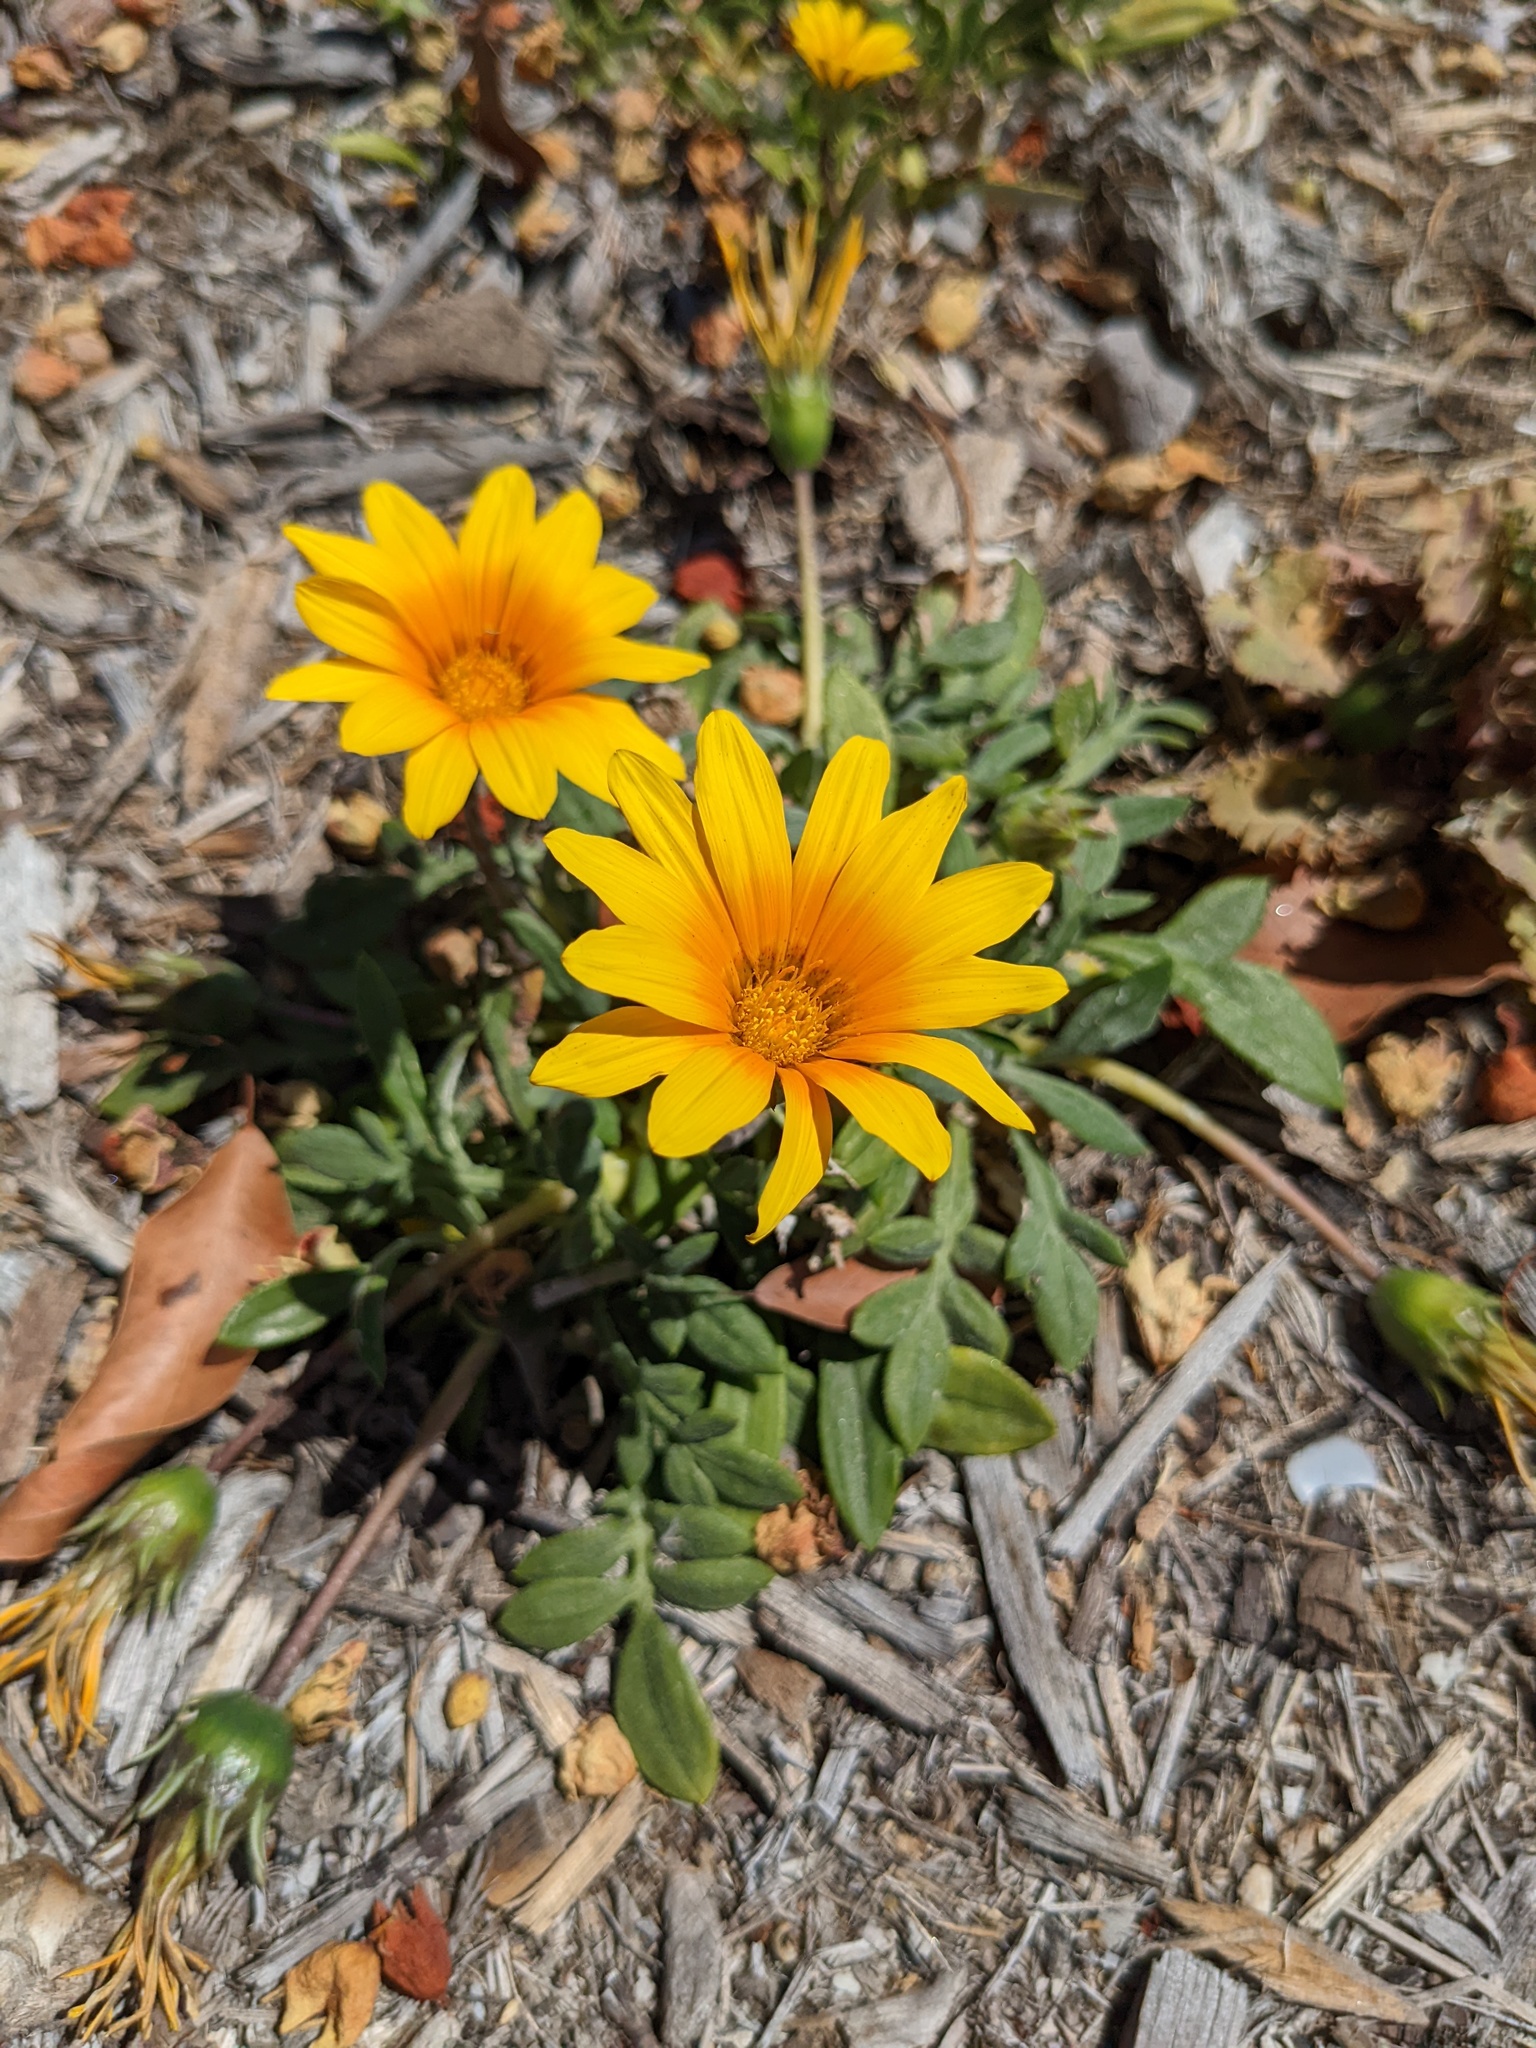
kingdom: Plantae
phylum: Tracheophyta
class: Magnoliopsida
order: Asterales
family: Asteraceae
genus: Gazania
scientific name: Gazania splendens
